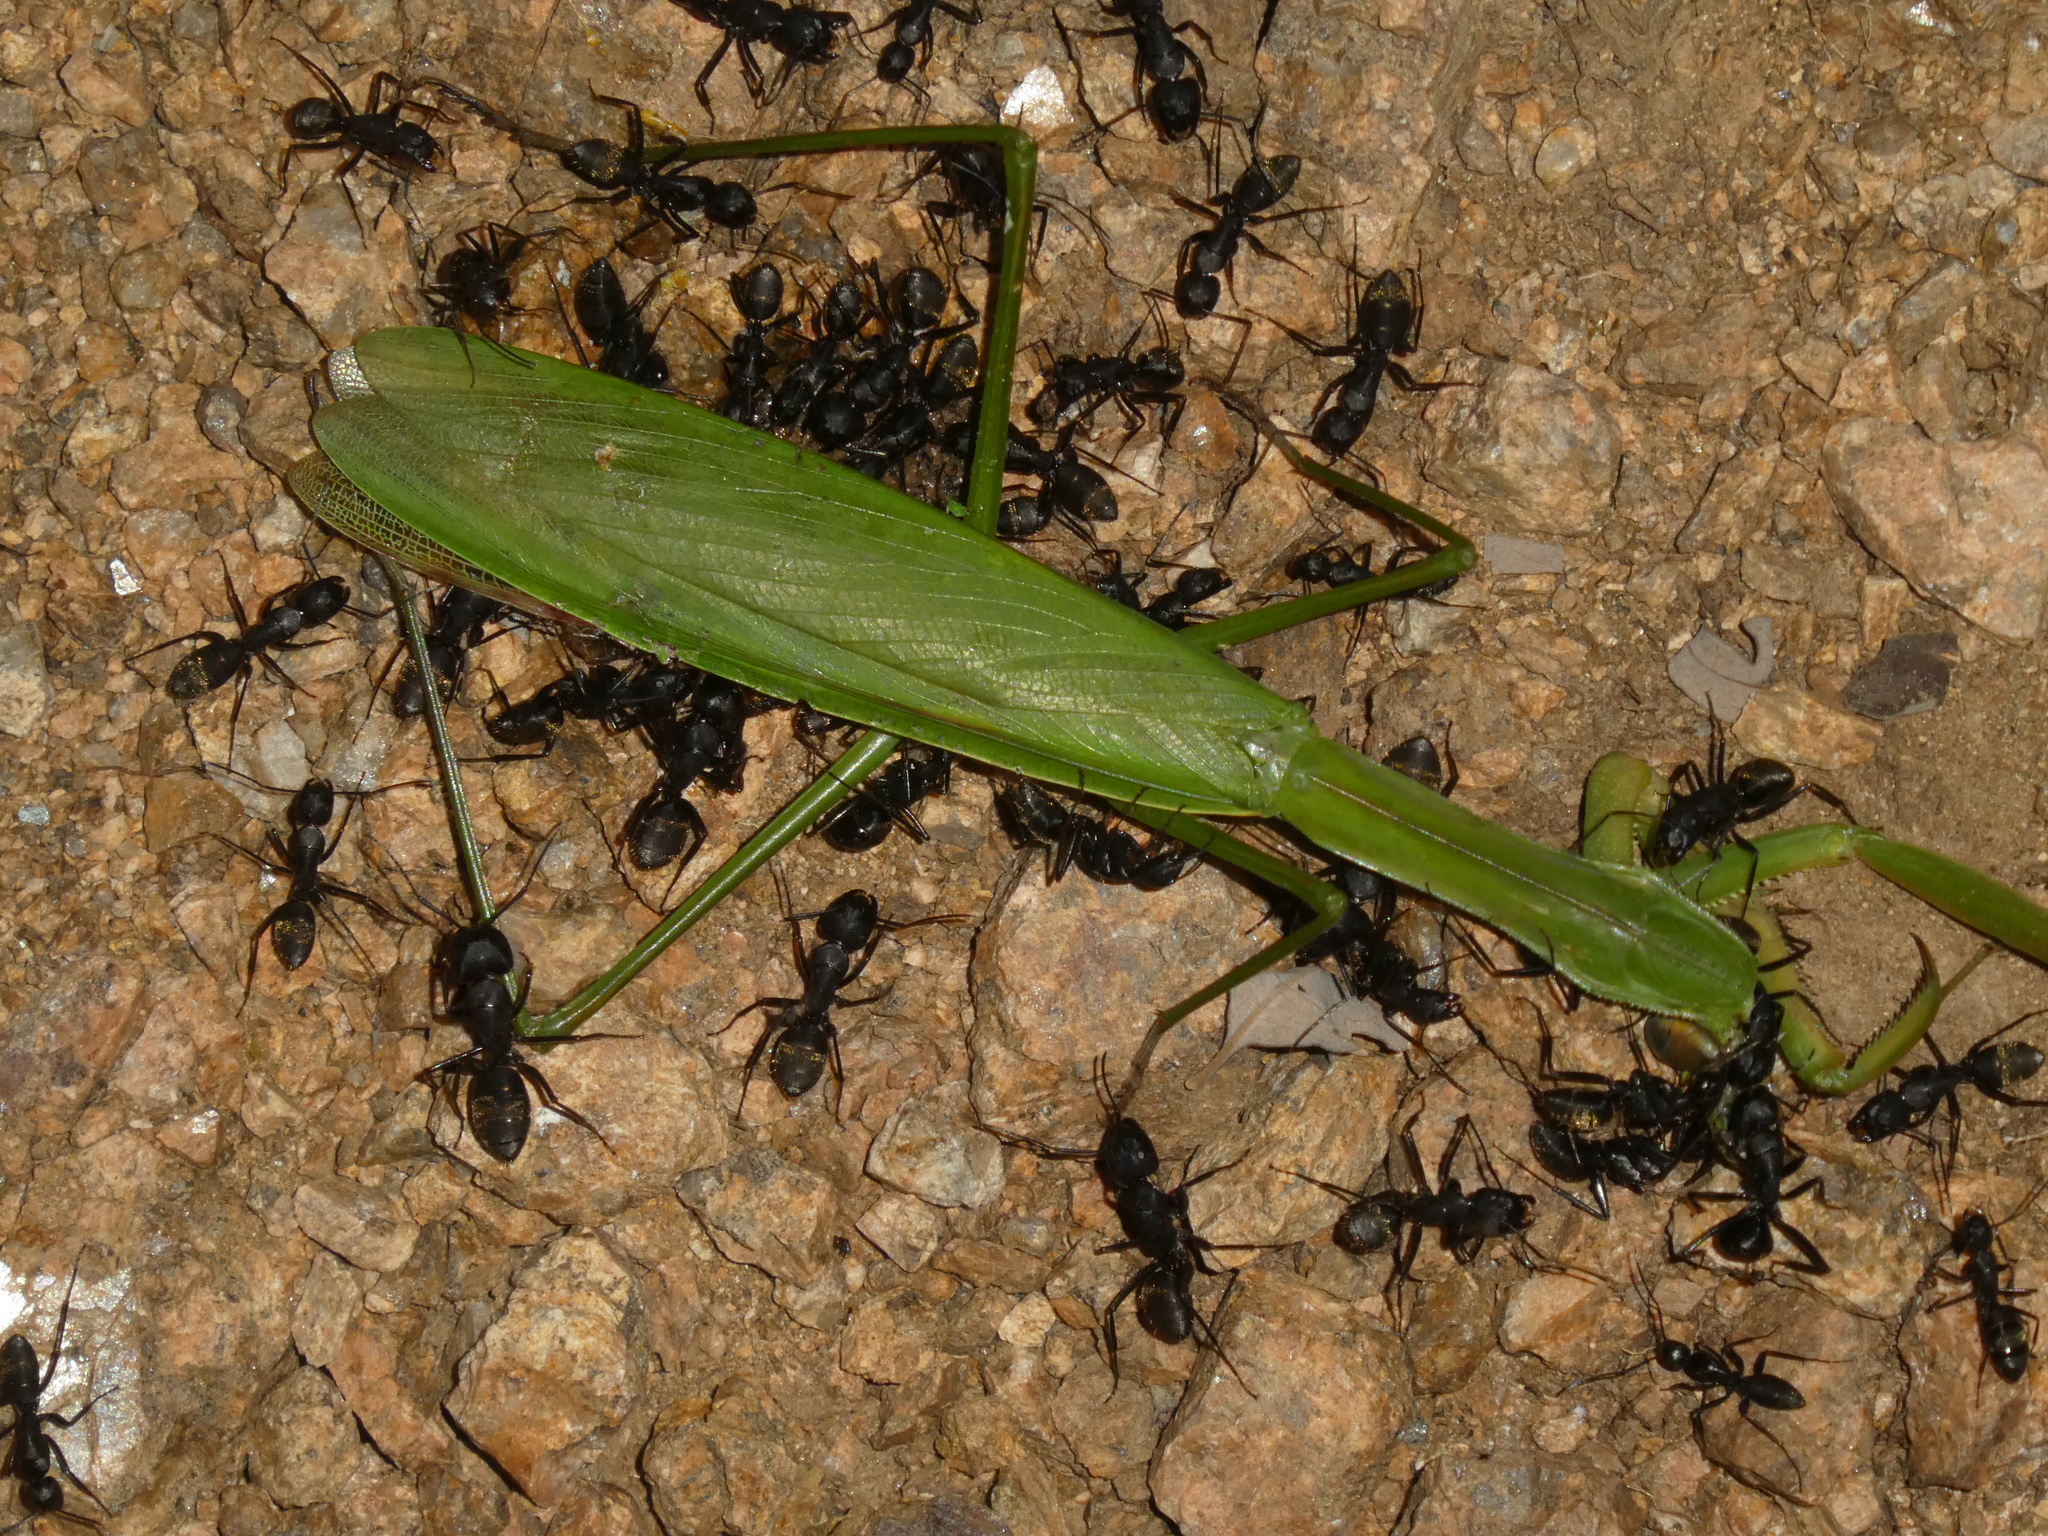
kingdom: Animalia
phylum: Arthropoda
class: Insecta
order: Mantodea
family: Mantidae
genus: Tenodera
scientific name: Tenodera sinensis
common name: Chinese mantis
